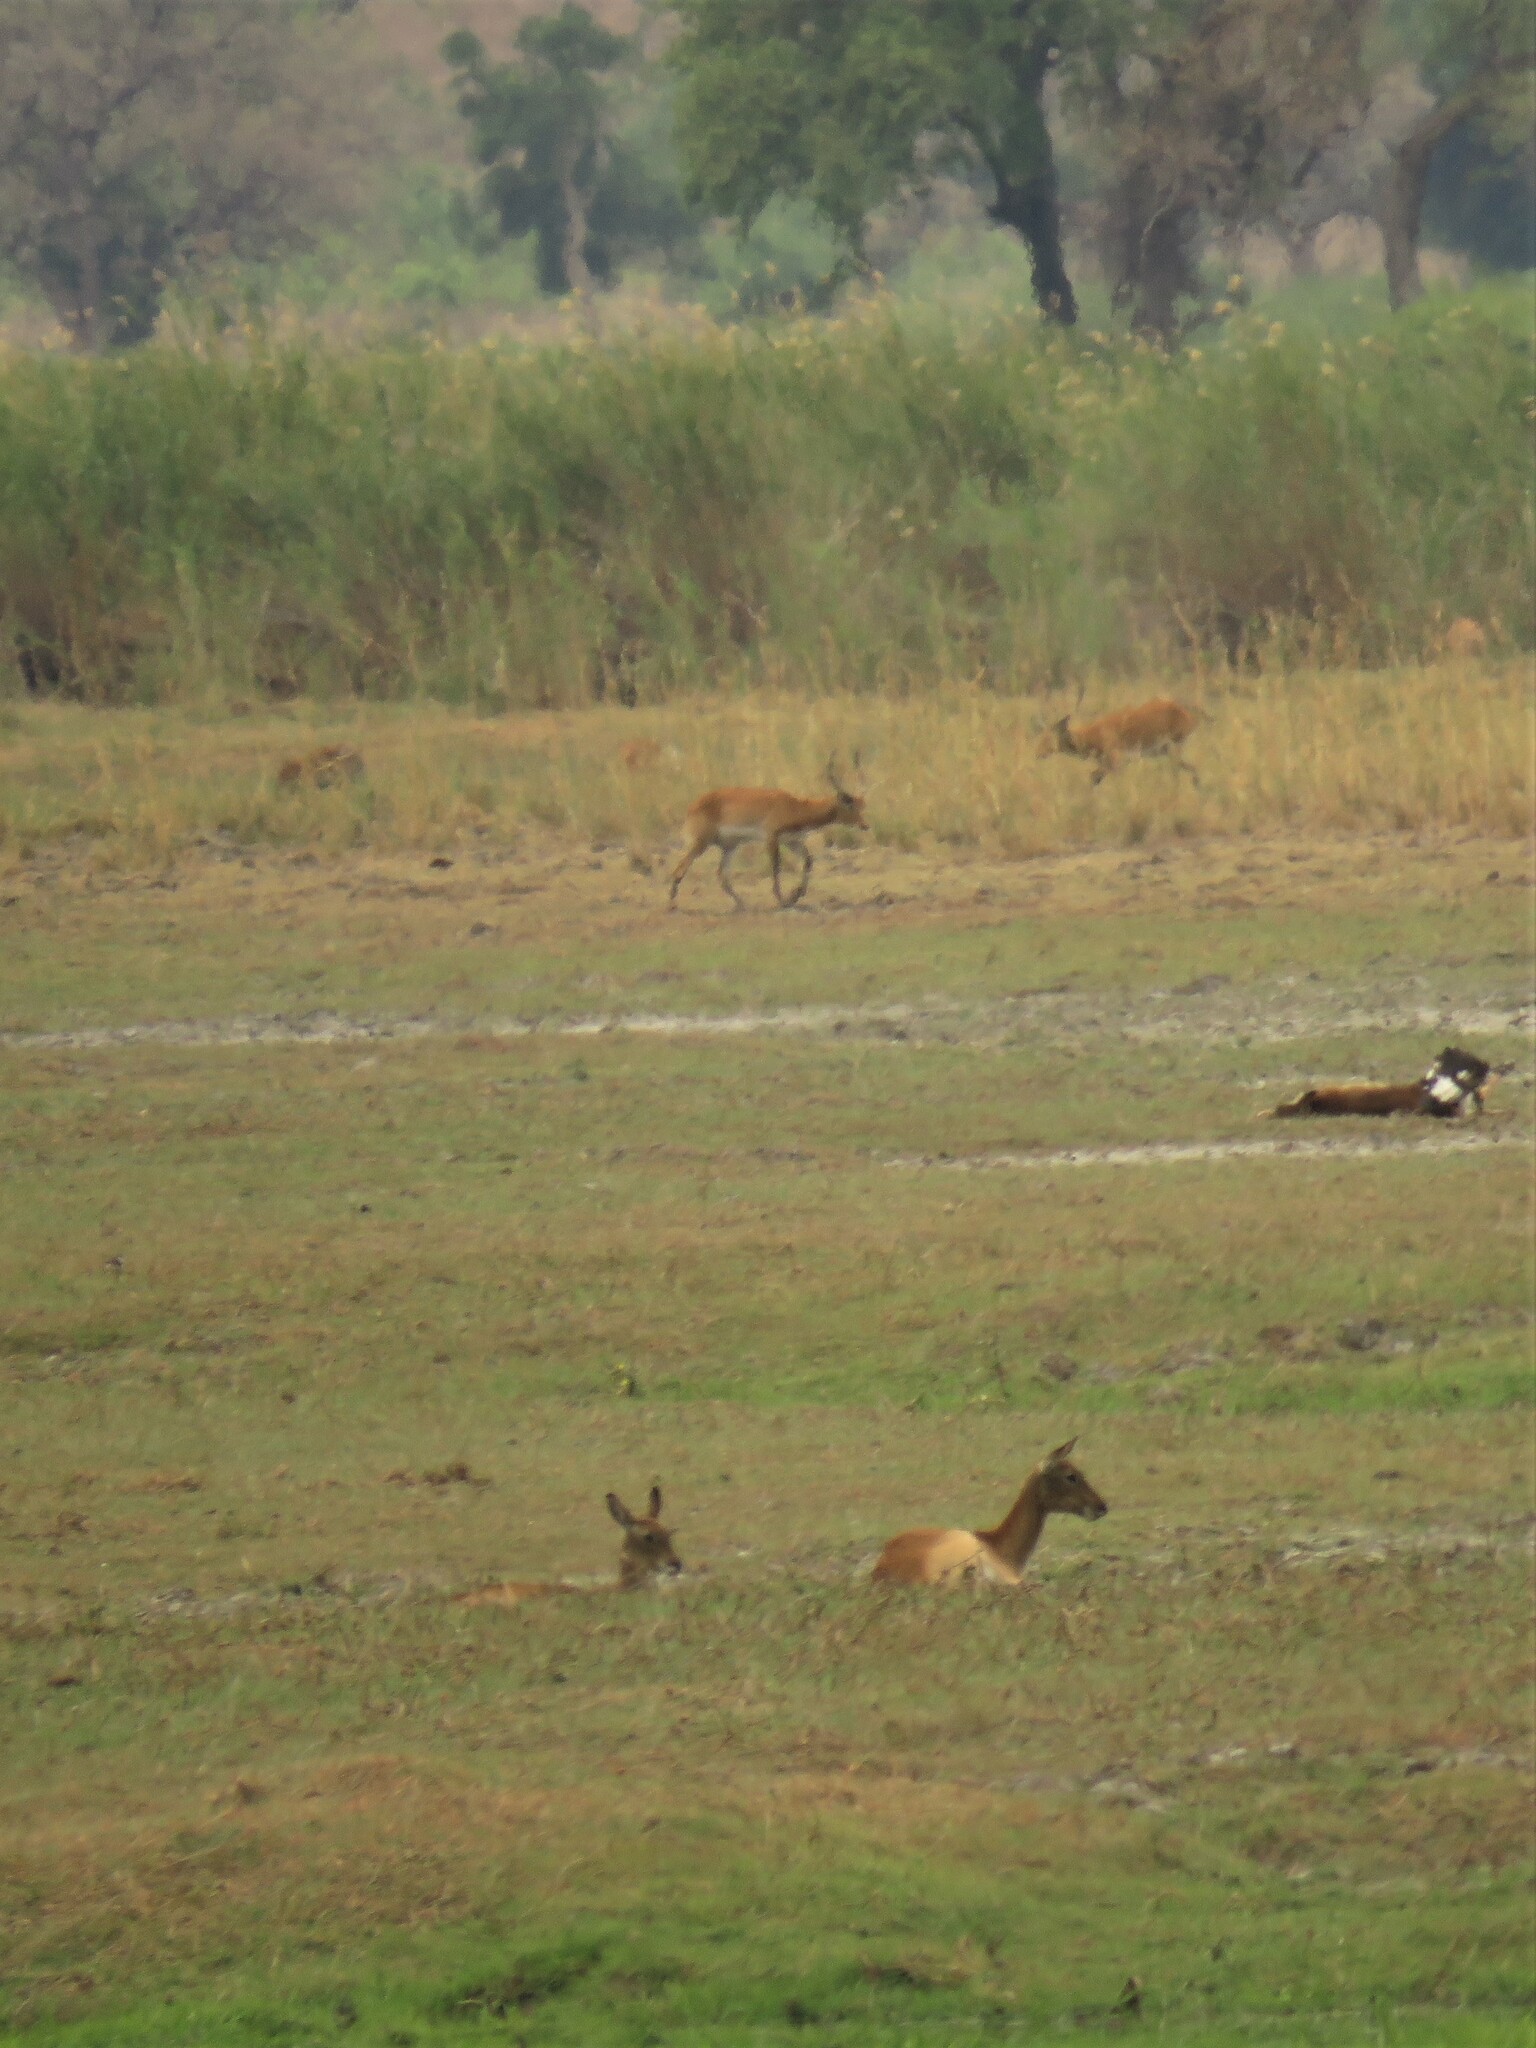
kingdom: Animalia
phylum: Chordata
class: Mammalia
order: Artiodactyla
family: Bovidae
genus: Kobus
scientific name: Kobus leche
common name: Lechwe
